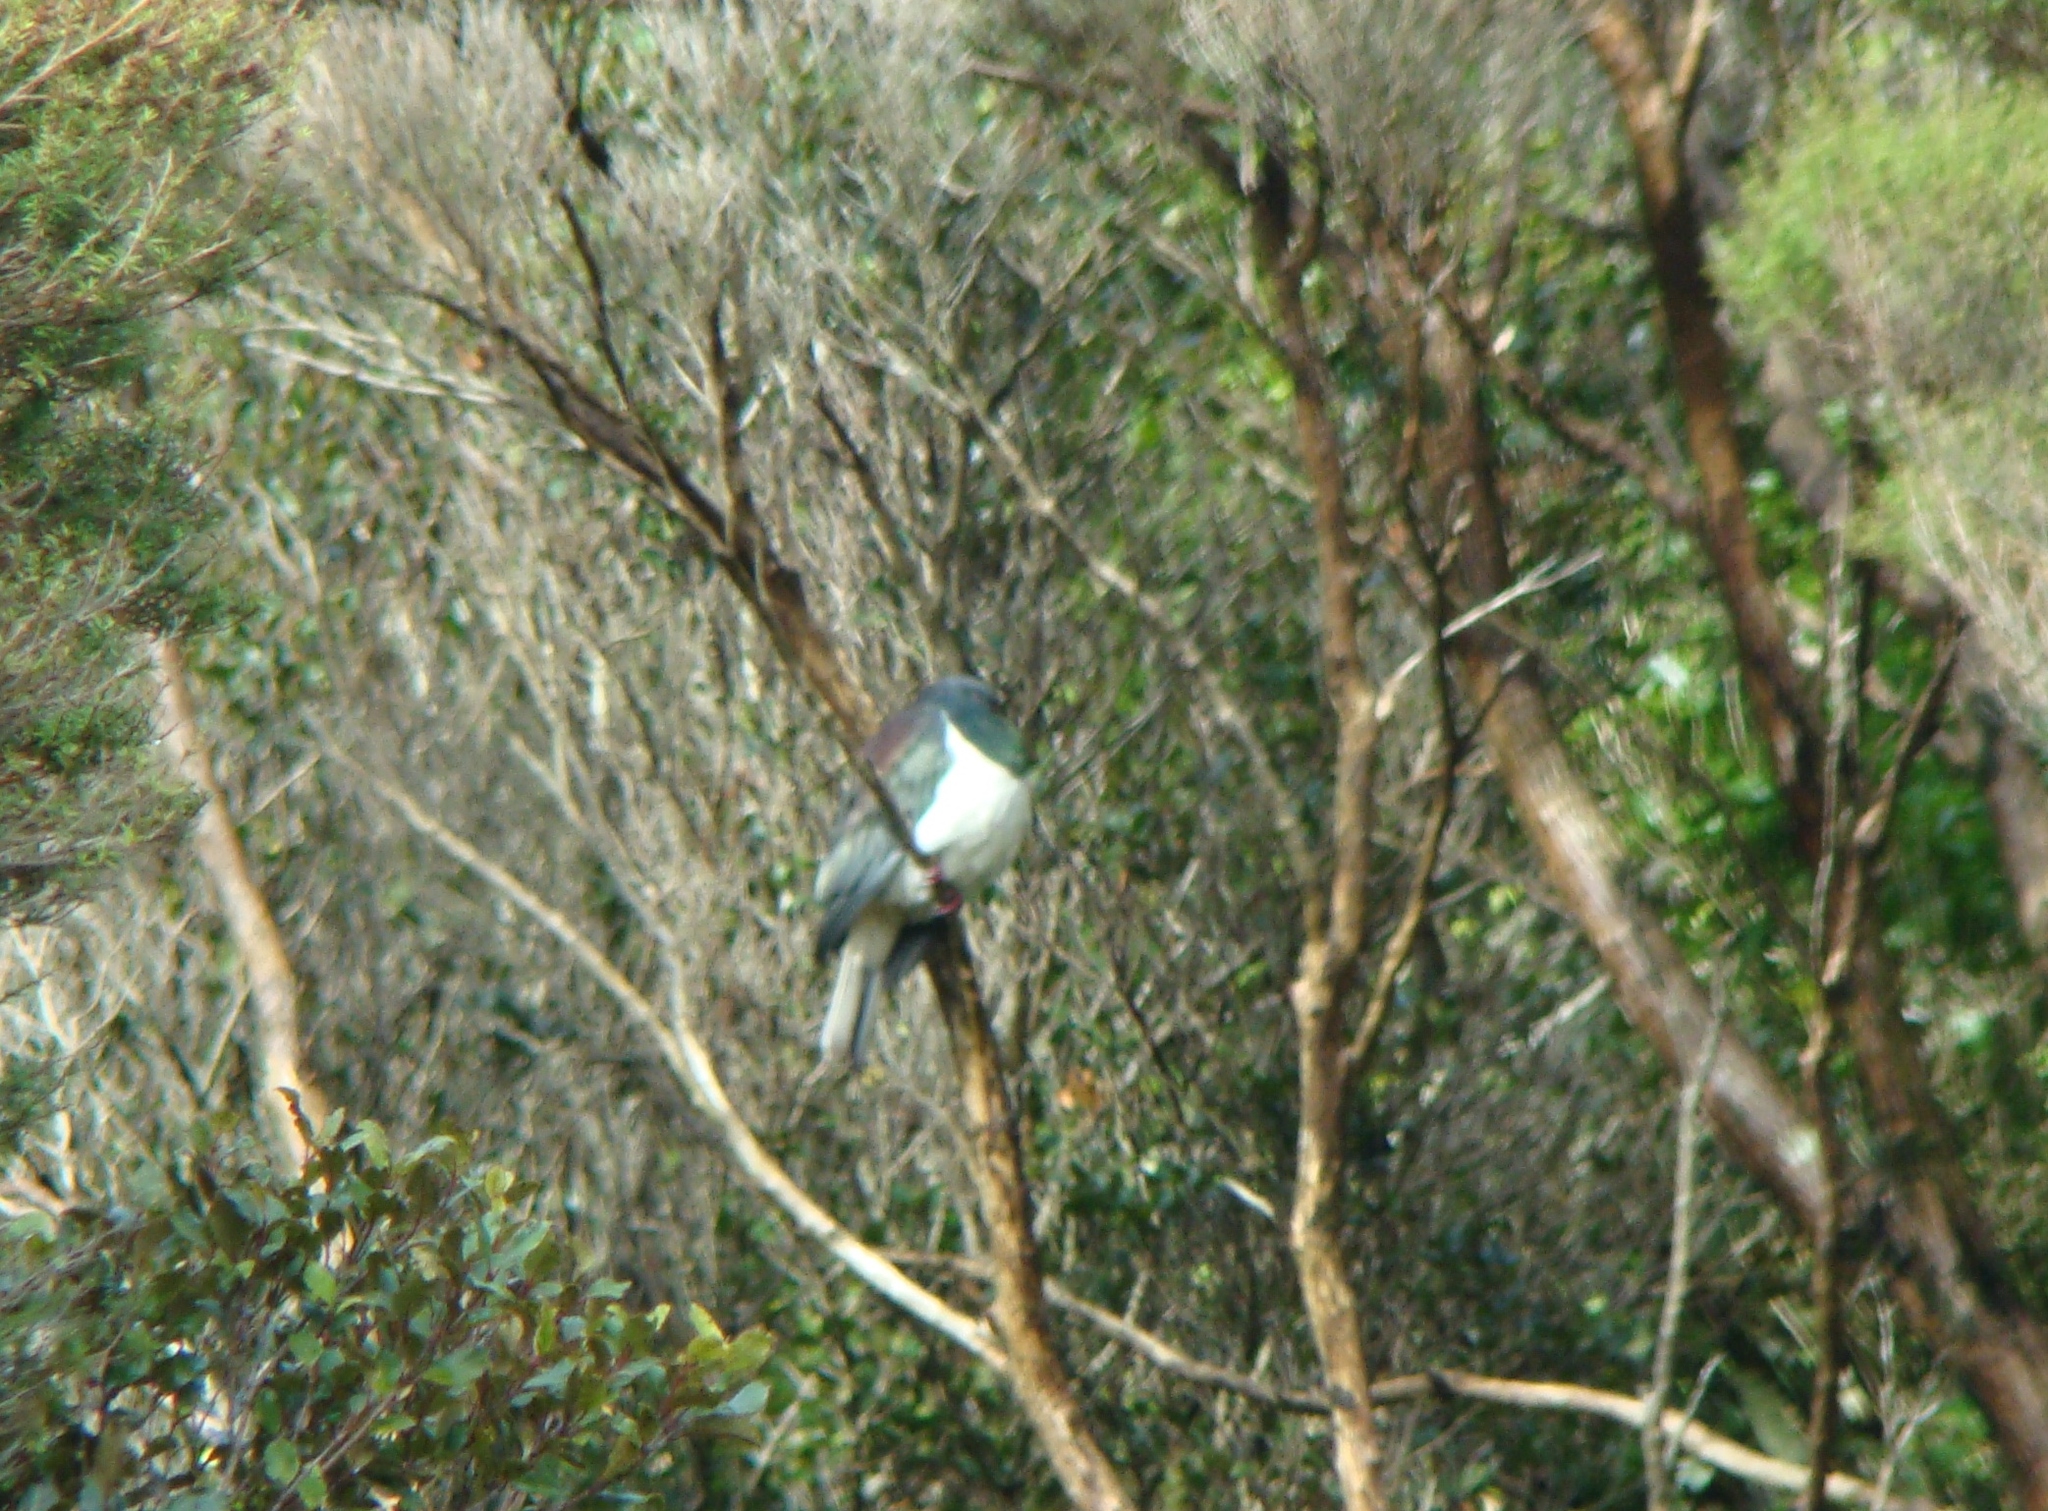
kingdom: Animalia
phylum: Chordata
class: Aves
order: Columbiformes
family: Columbidae
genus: Hemiphaga
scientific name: Hemiphaga novaeseelandiae
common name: New zealand pigeon
